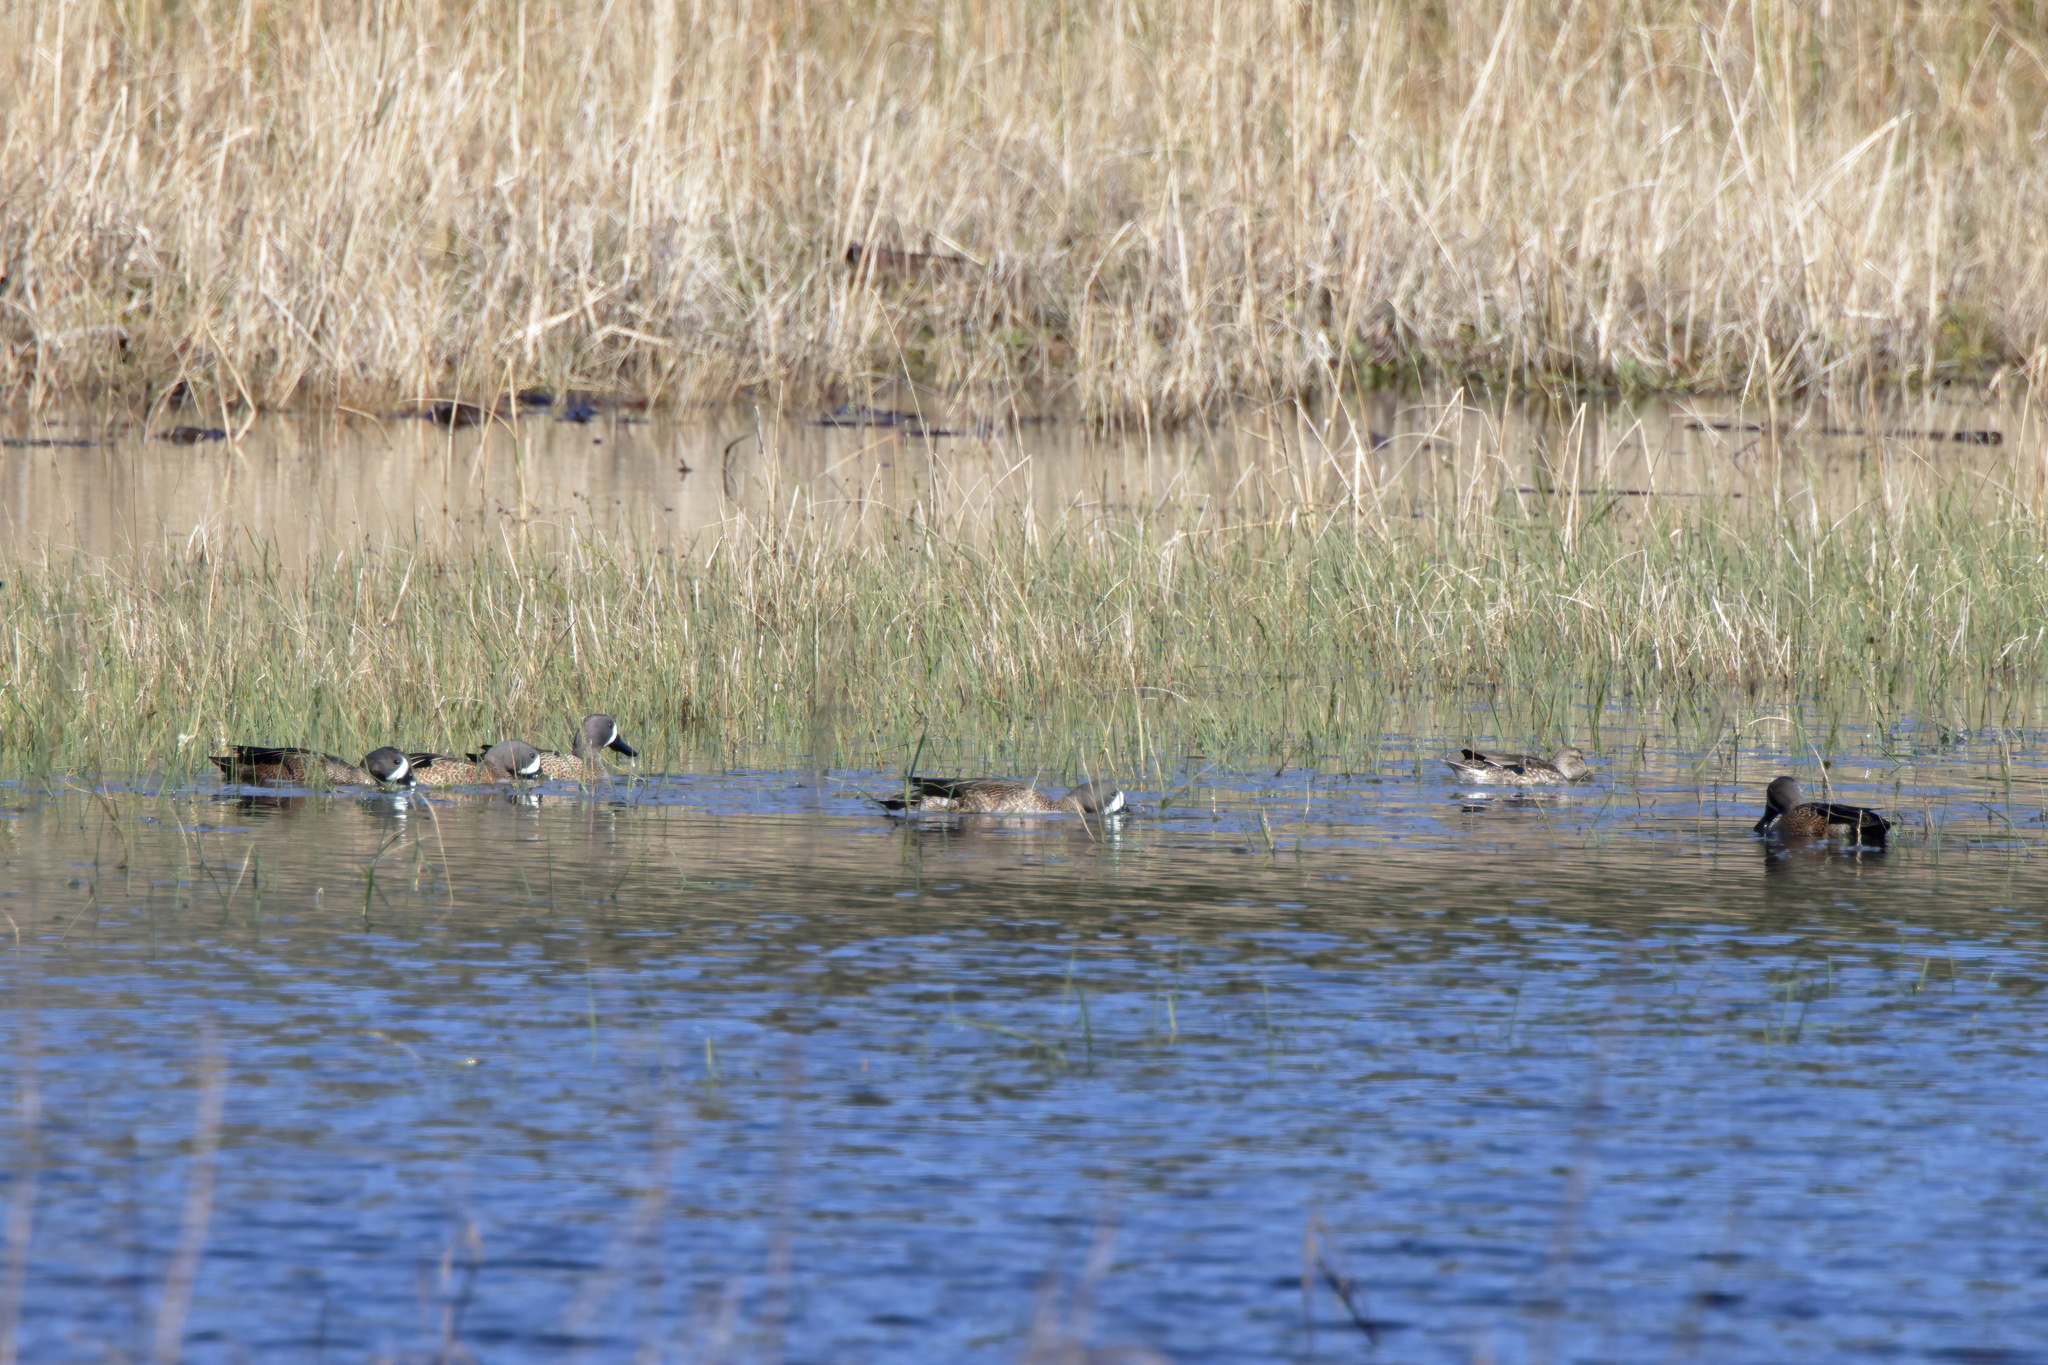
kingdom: Animalia
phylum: Chordata
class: Aves
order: Anseriformes
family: Anatidae
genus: Spatula
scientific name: Spatula discors
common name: Blue-winged teal
